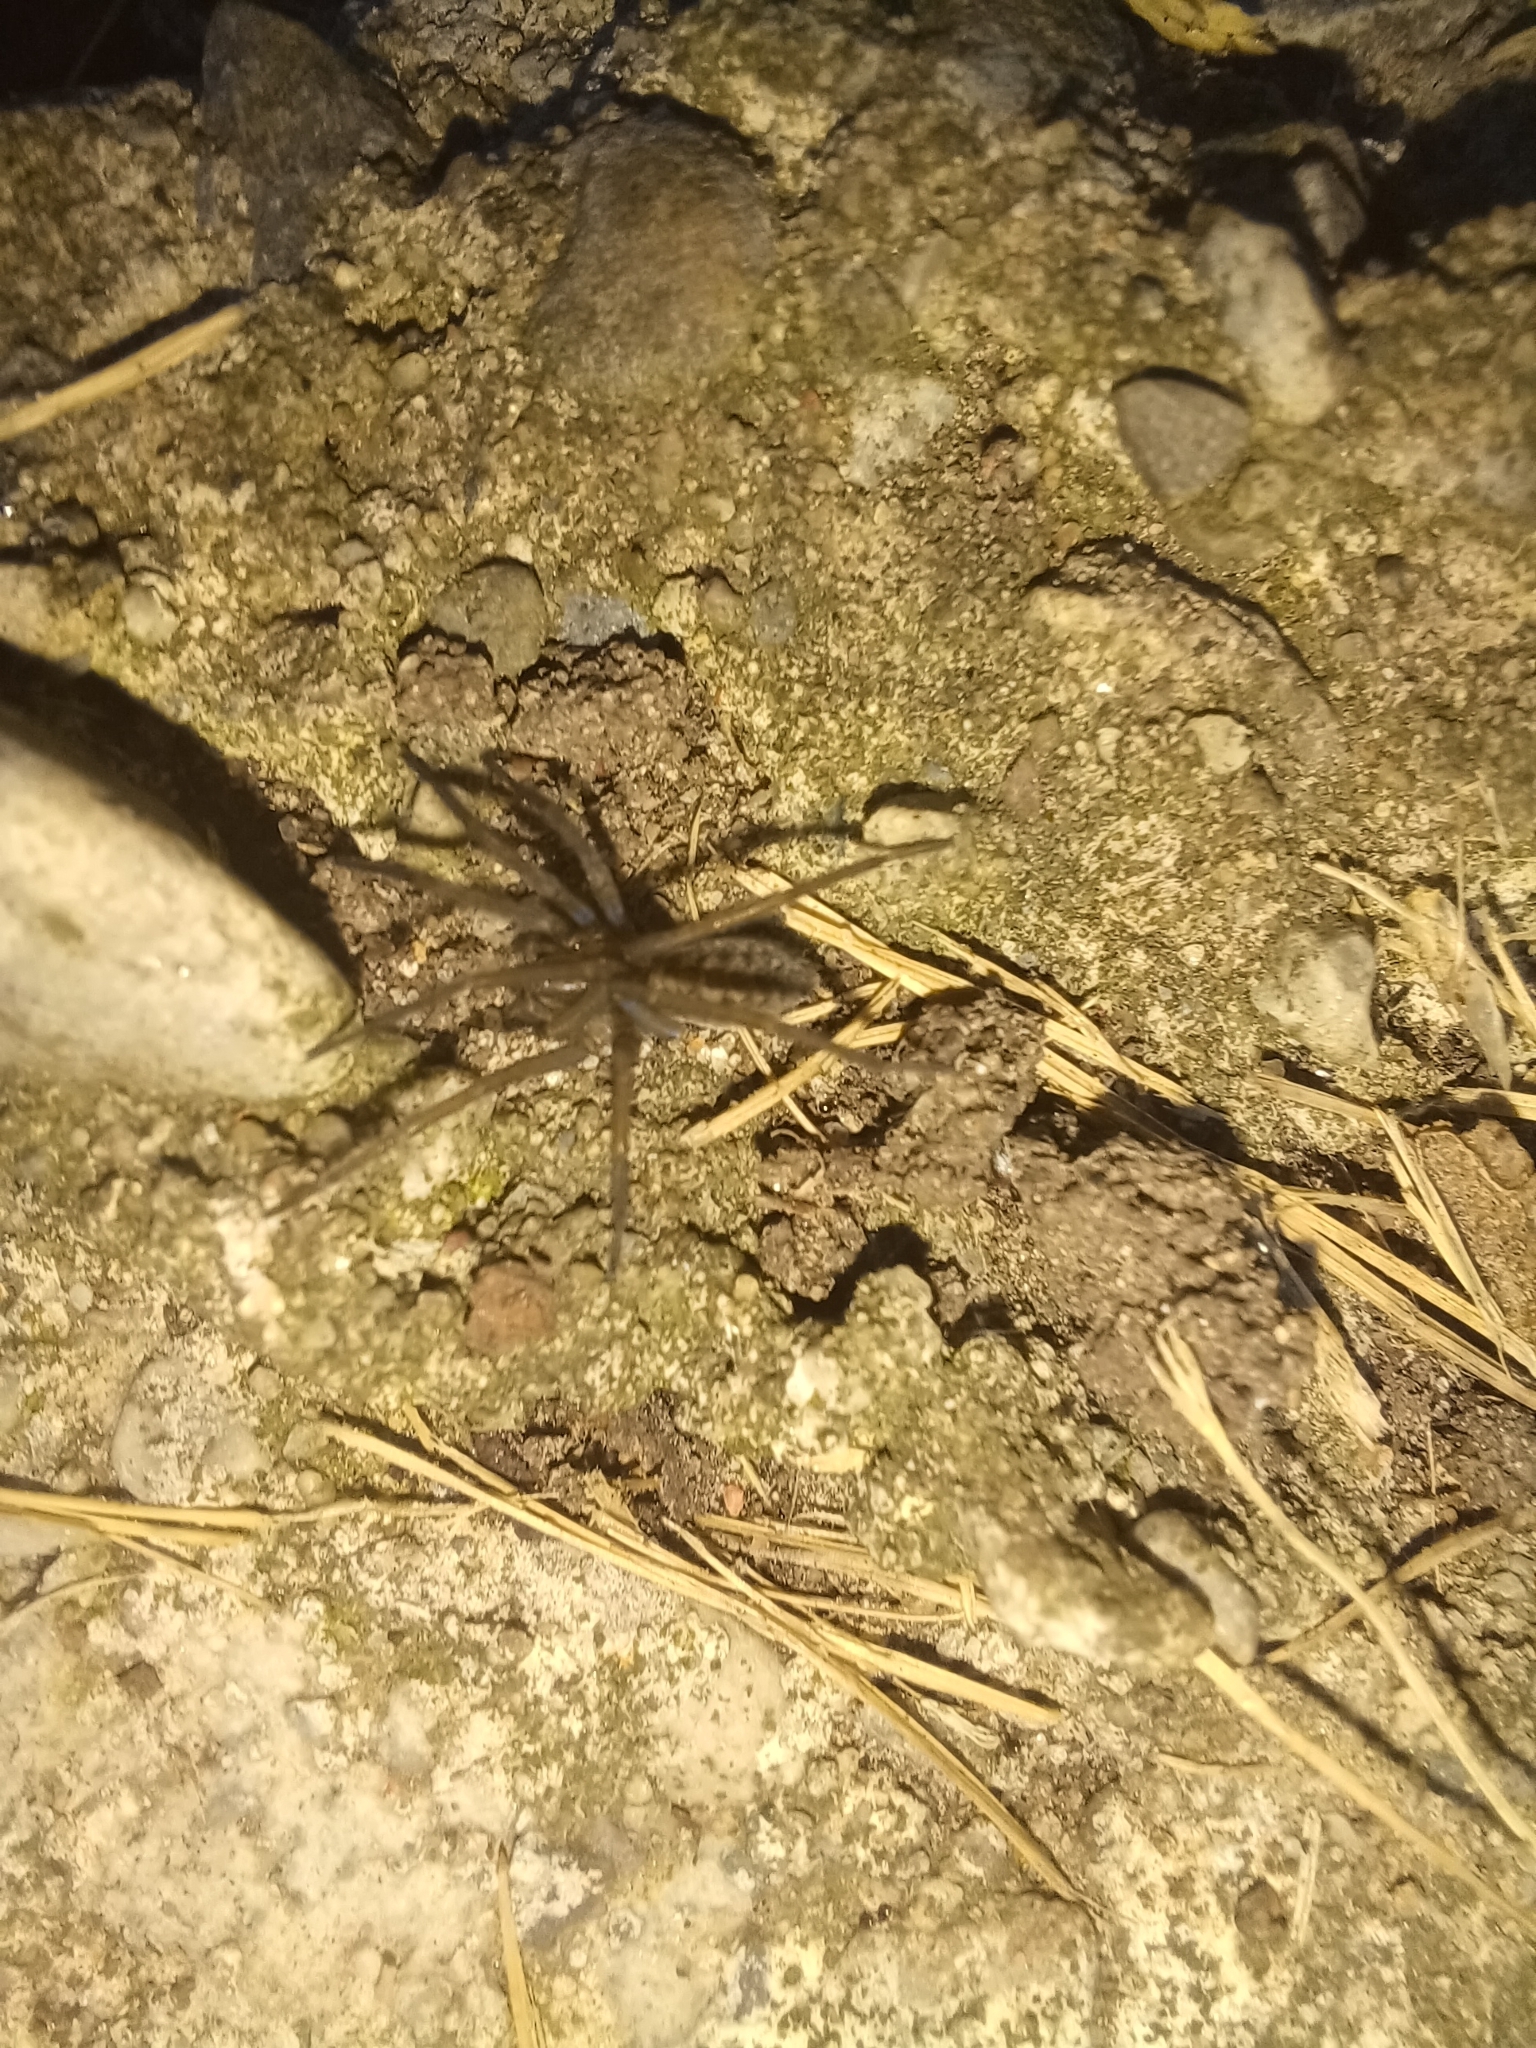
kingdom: Animalia
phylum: Arthropoda
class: Arachnida
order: Araneae
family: Agelenidae
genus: Eratigena
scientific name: Eratigena agrestis
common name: Hobo spider
